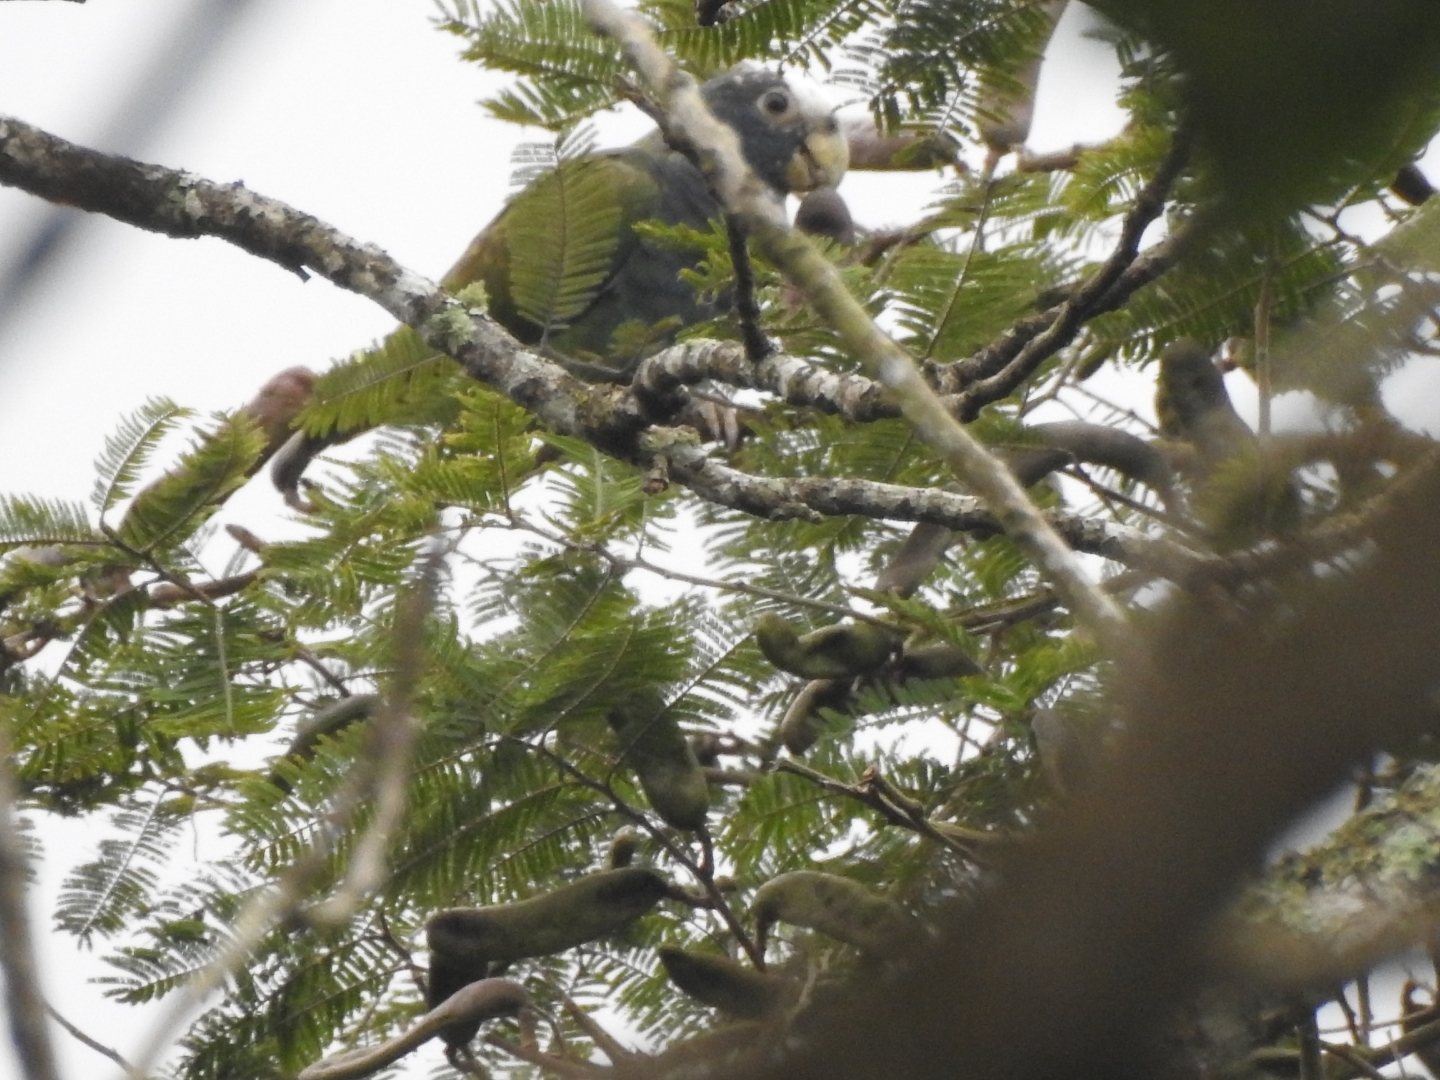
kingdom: Animalia
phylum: Chordata
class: Aves
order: Psittaciformes
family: Psittacidae
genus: Pionus
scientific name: Pionus senilis
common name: White-crowned parrot
